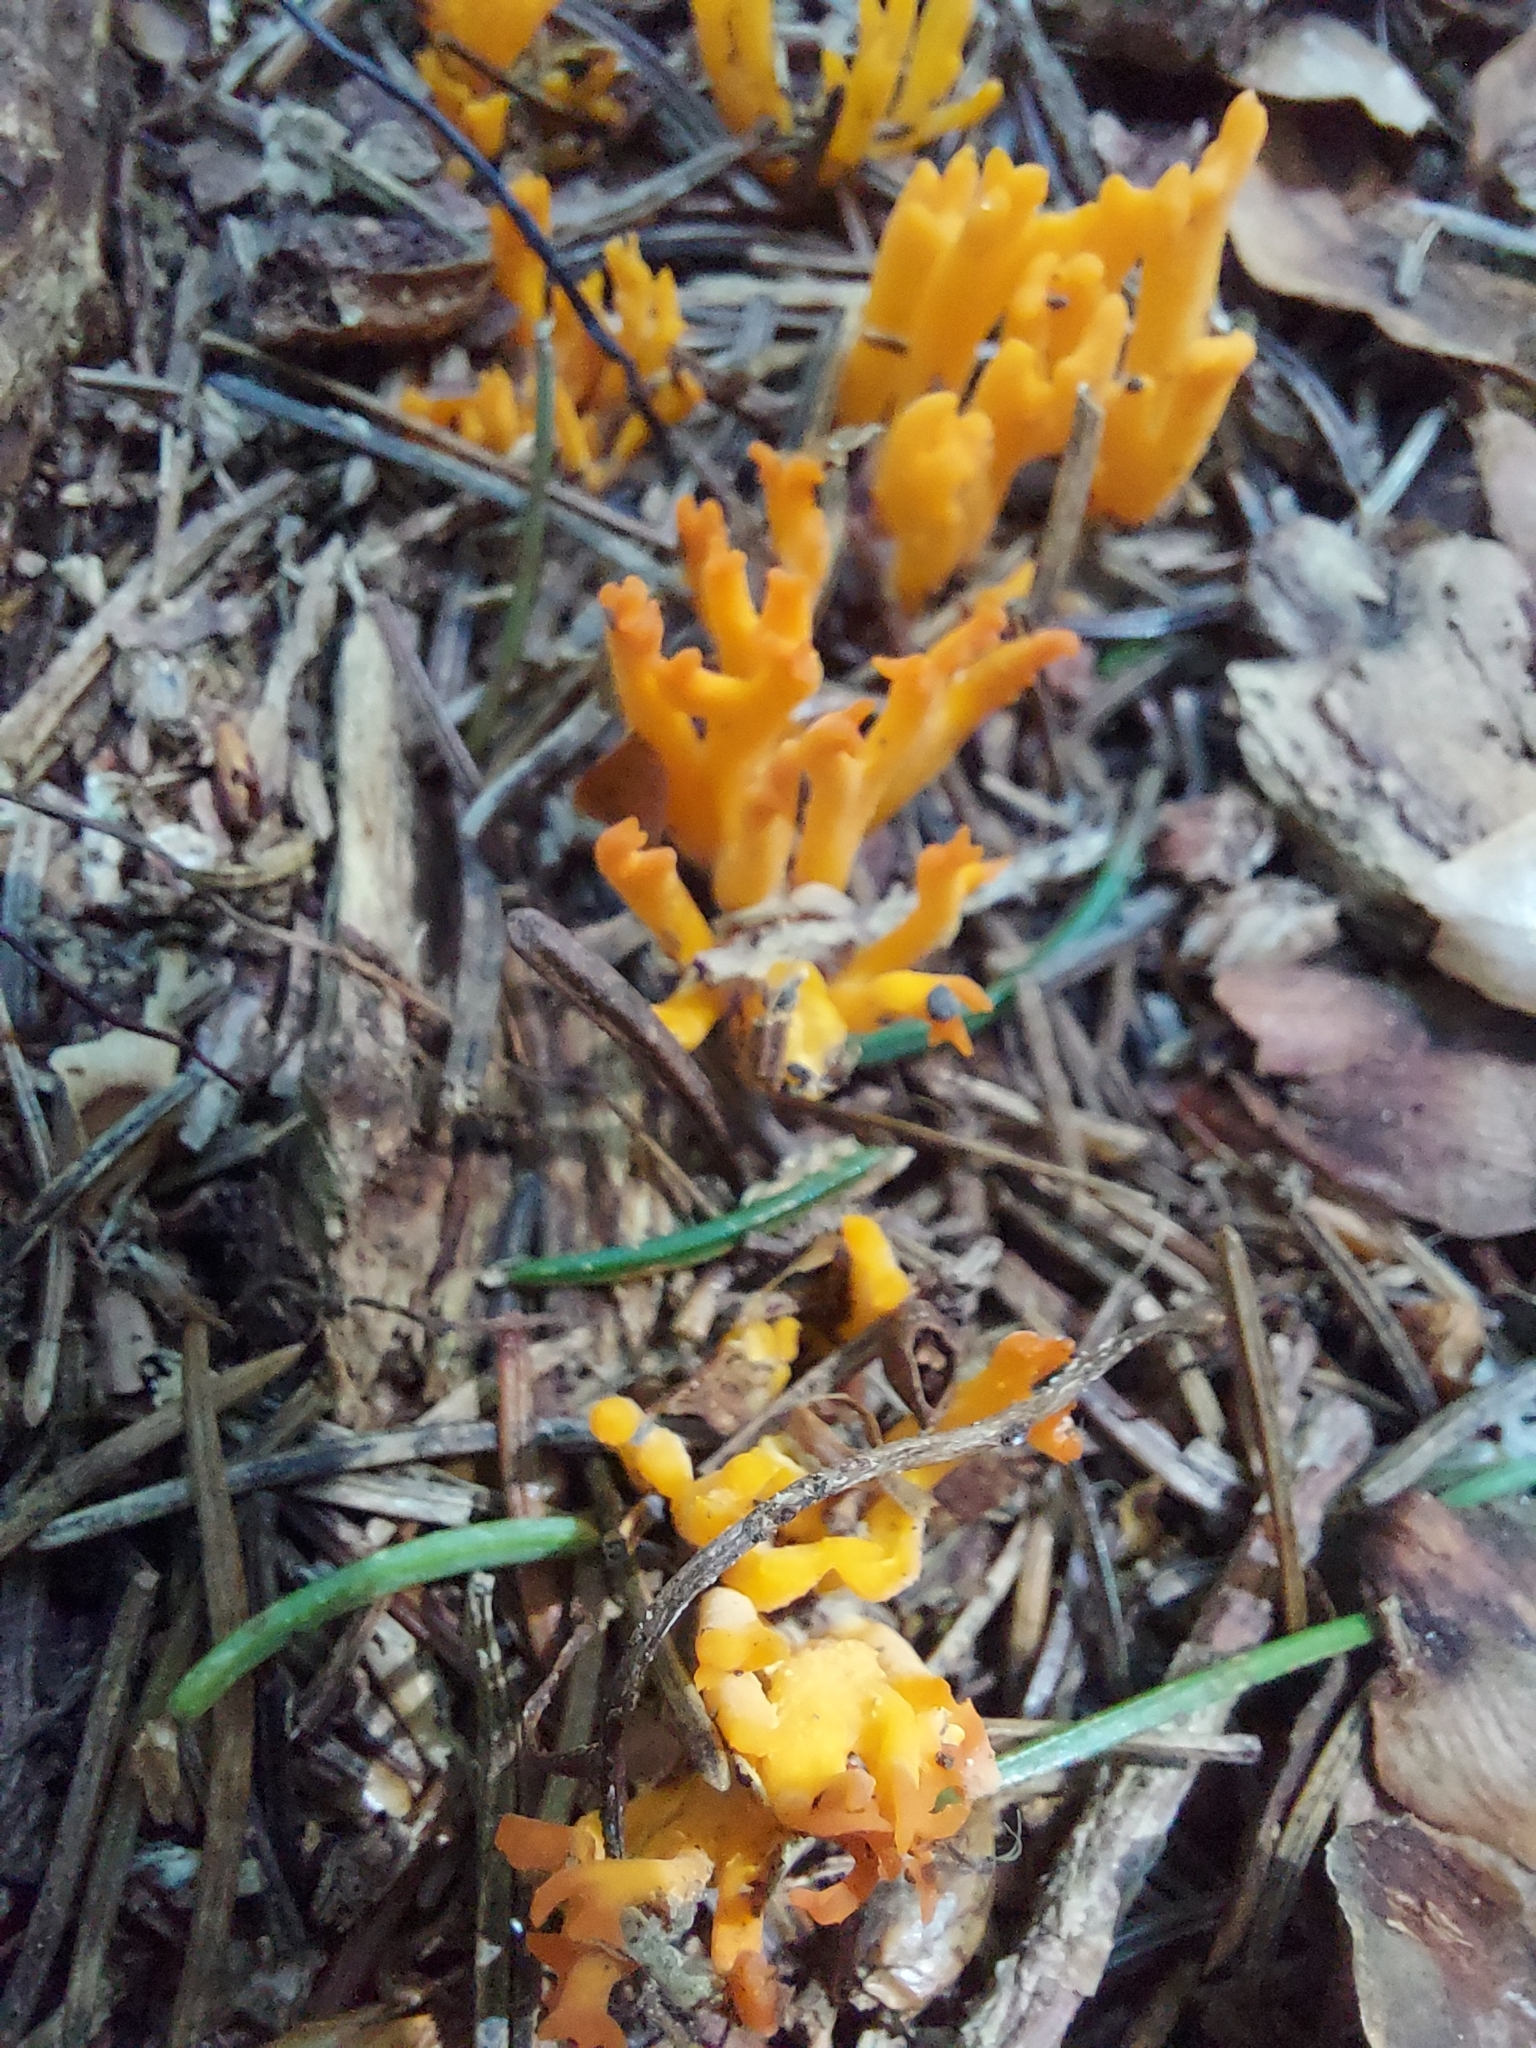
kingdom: Fungi
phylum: Basidiomycota
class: Dacrymycetes
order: Dacrymycetales
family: Dacrymycetaceae
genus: Calocera
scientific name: Calocera viscosa
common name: Yellow stagshorn
